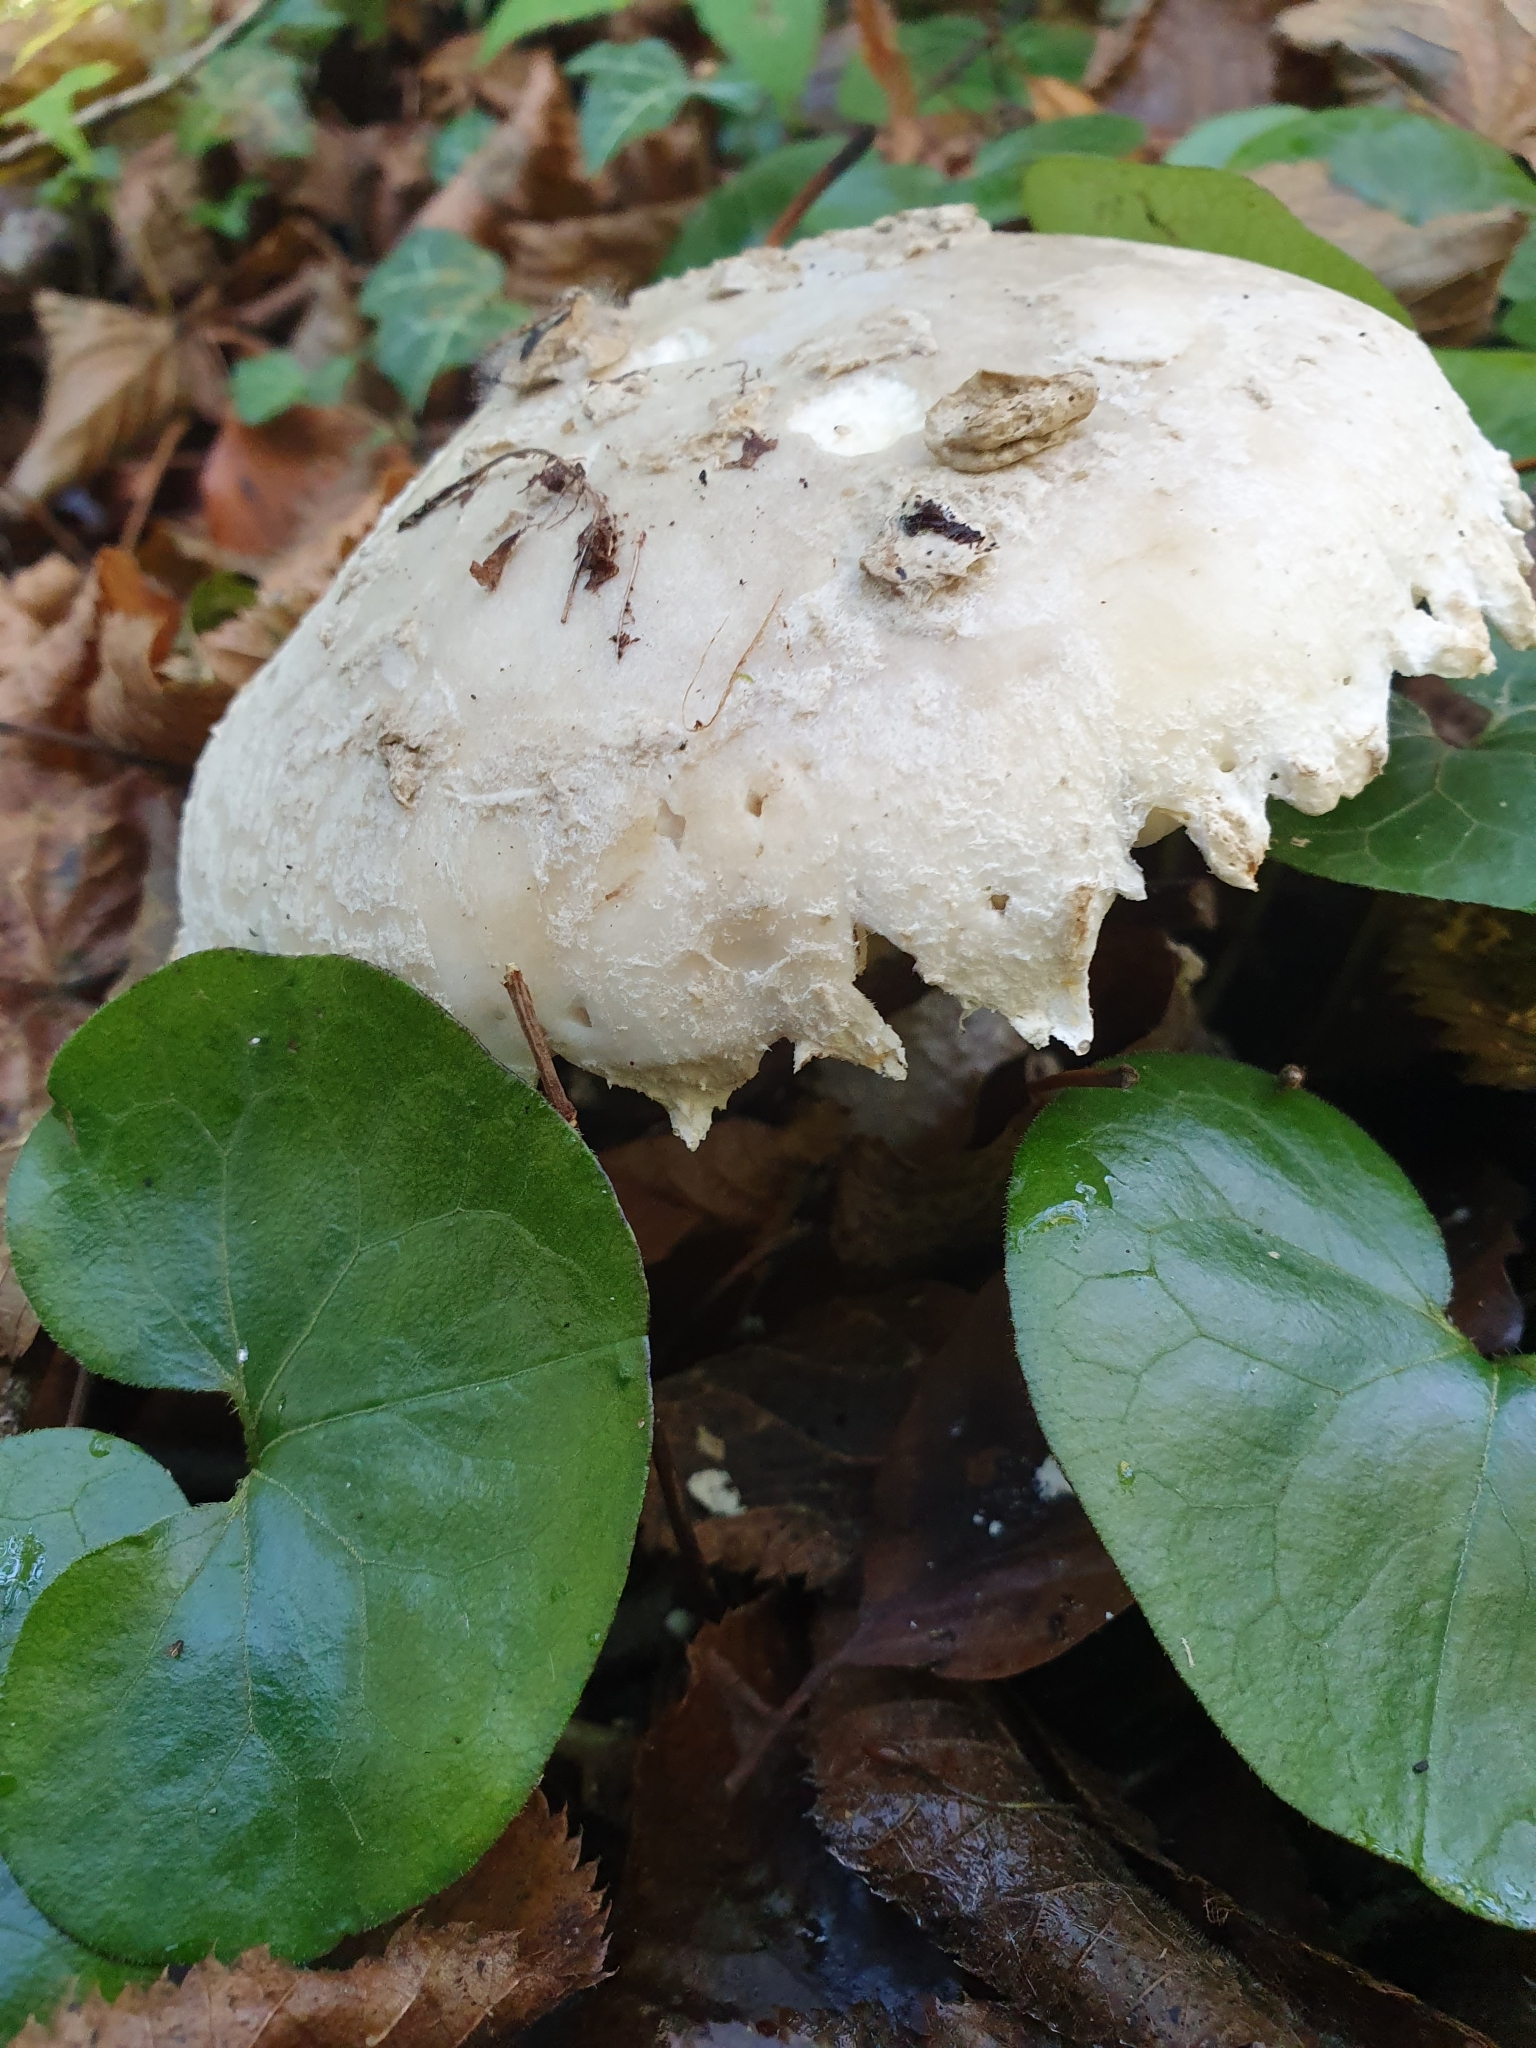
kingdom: Fungi
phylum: Basidiomycota
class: Agaricomycetes
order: Agaricales
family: Amanitaceae
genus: Amanita
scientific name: Amanita strobiliformis
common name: Warted amanita
